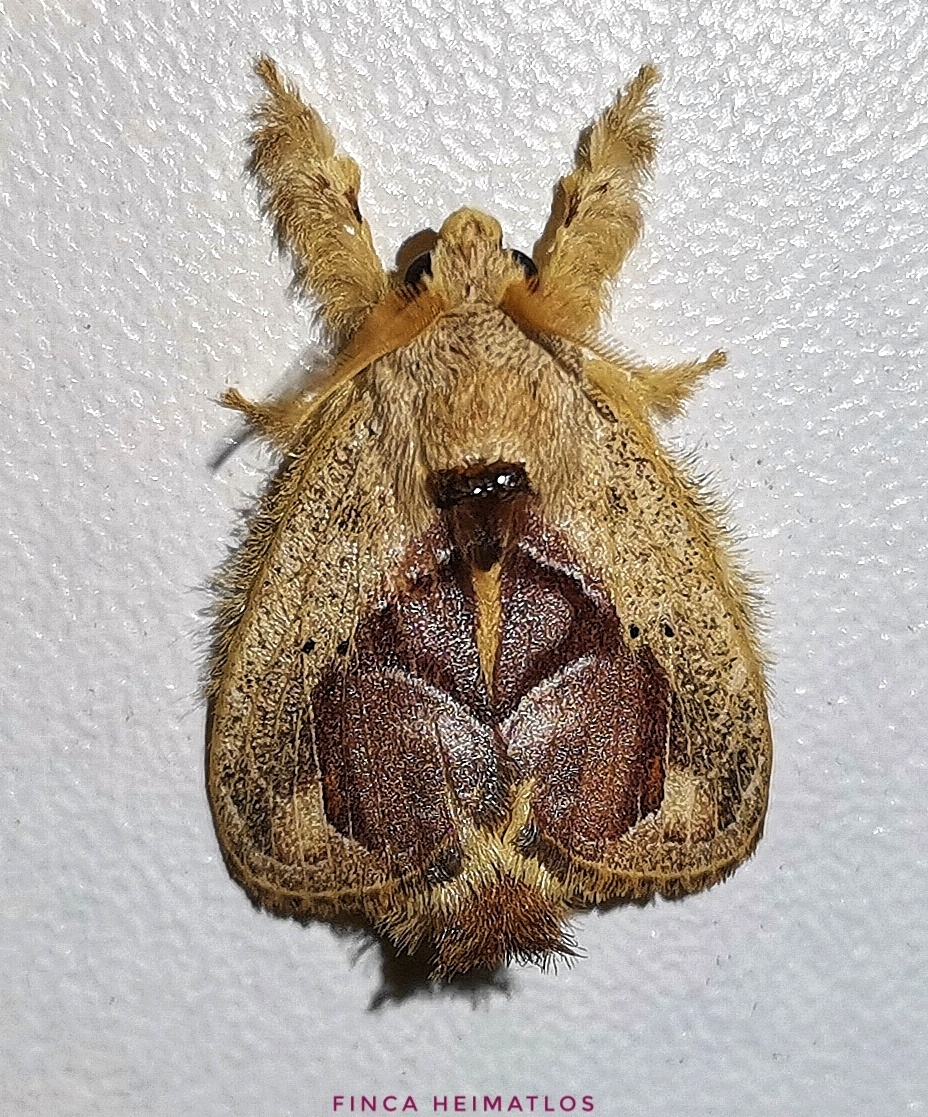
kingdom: Animalia
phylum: Arthropoda
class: Insecta
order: Lepidoptera
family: Lasiocampidae
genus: Euglyphis
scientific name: Euglyphis amisena
